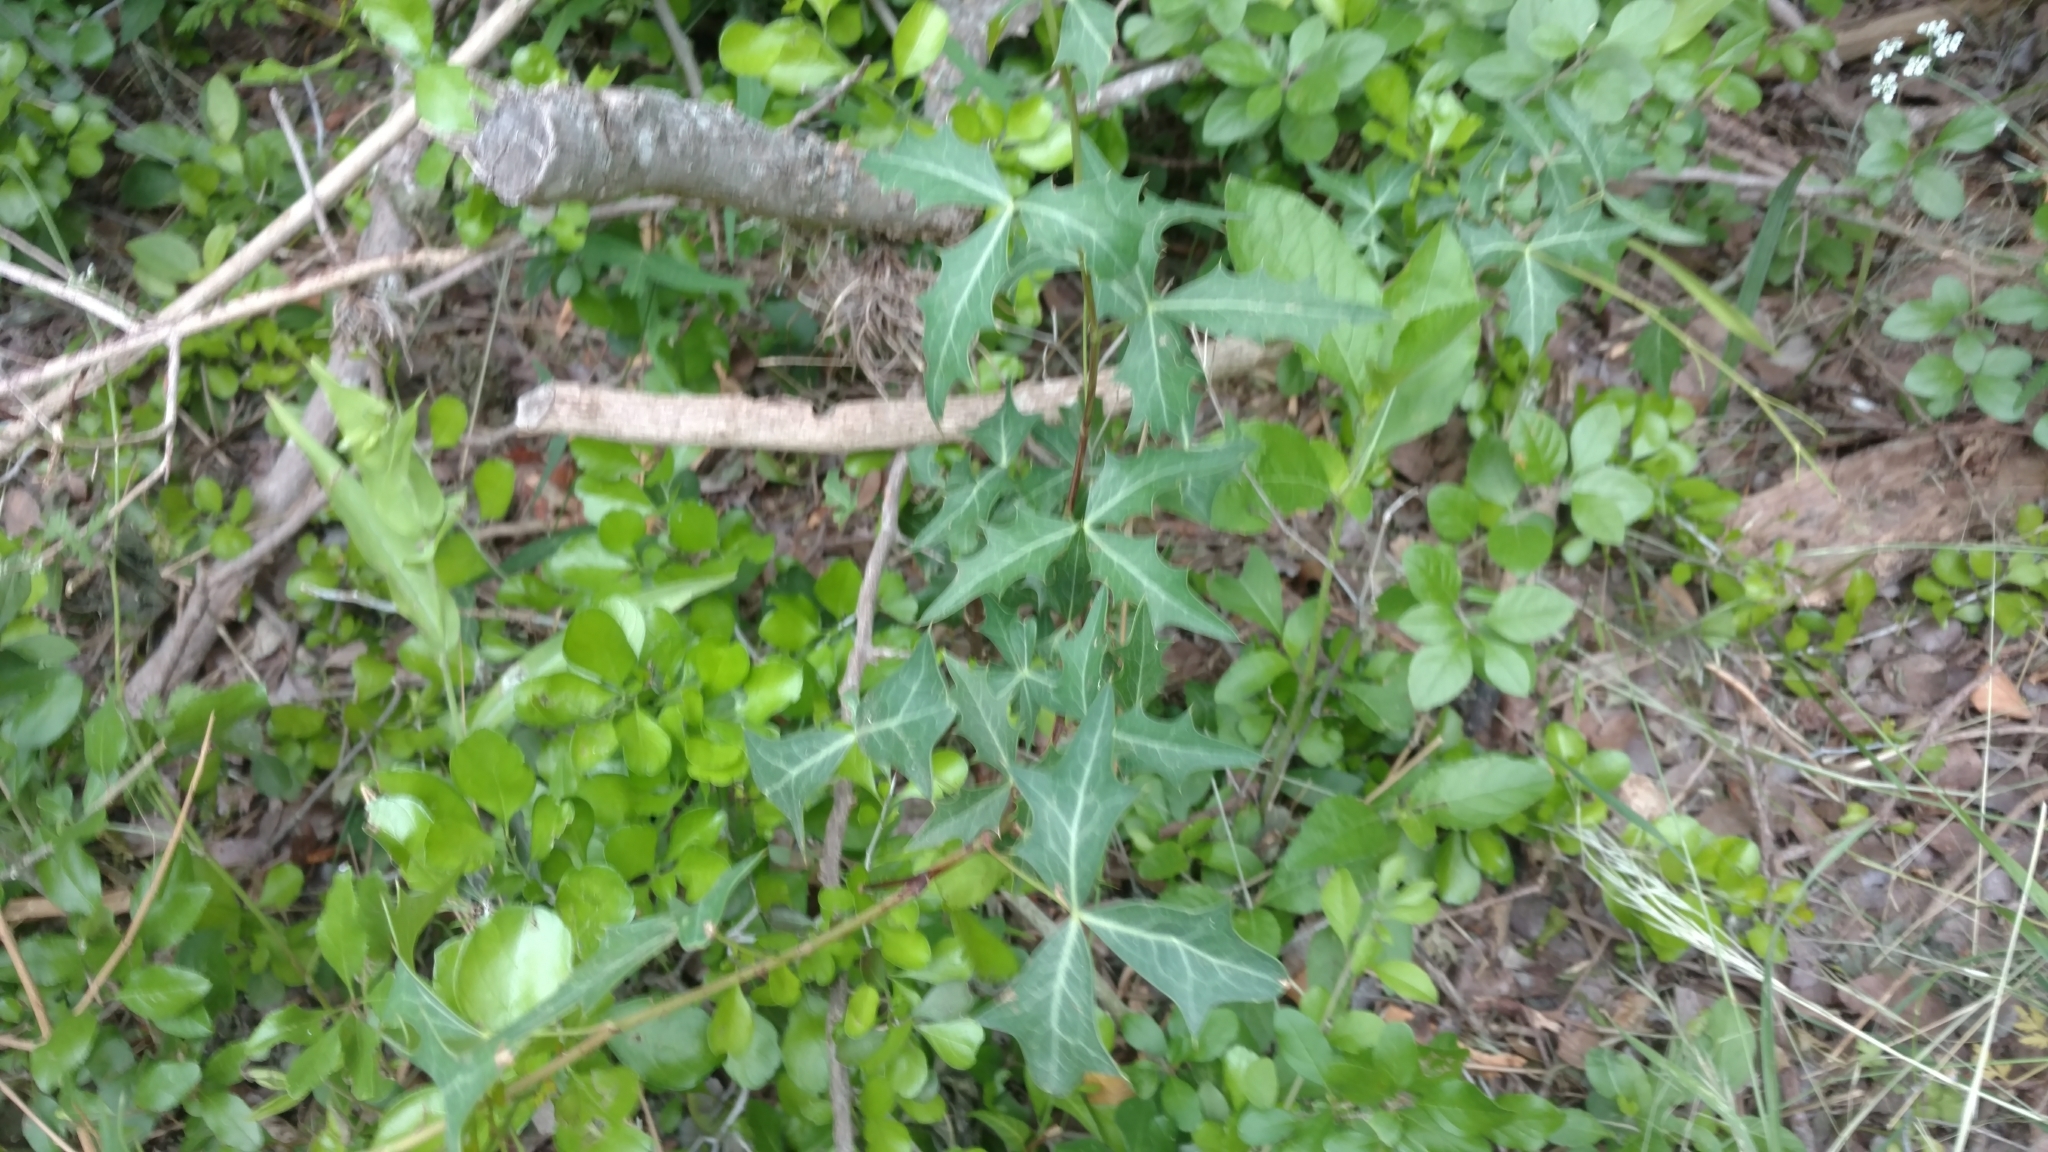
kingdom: Plantae
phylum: Tracheophyta
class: Magnoliopsida
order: Ranunculales
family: Berberidaceae
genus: Alloberberis
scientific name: Alloberberis trifoliolata
